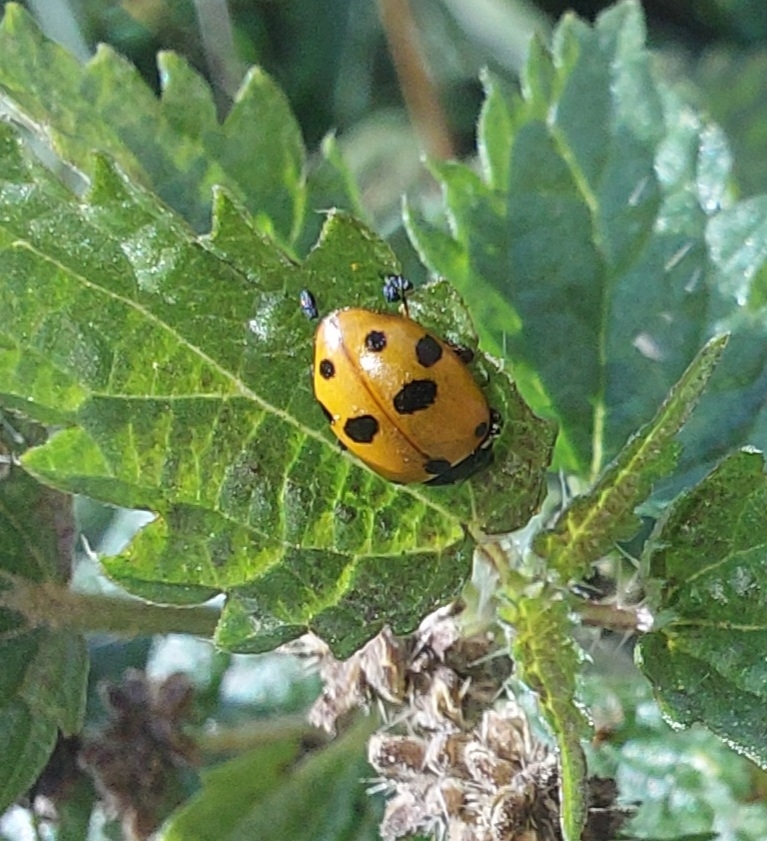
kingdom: Animalia
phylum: Arthropoda
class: Insecta
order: Coleoptera
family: Coccinellidae
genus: Hippodamia
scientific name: Hippodamia variegata
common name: Ladybird beetle
